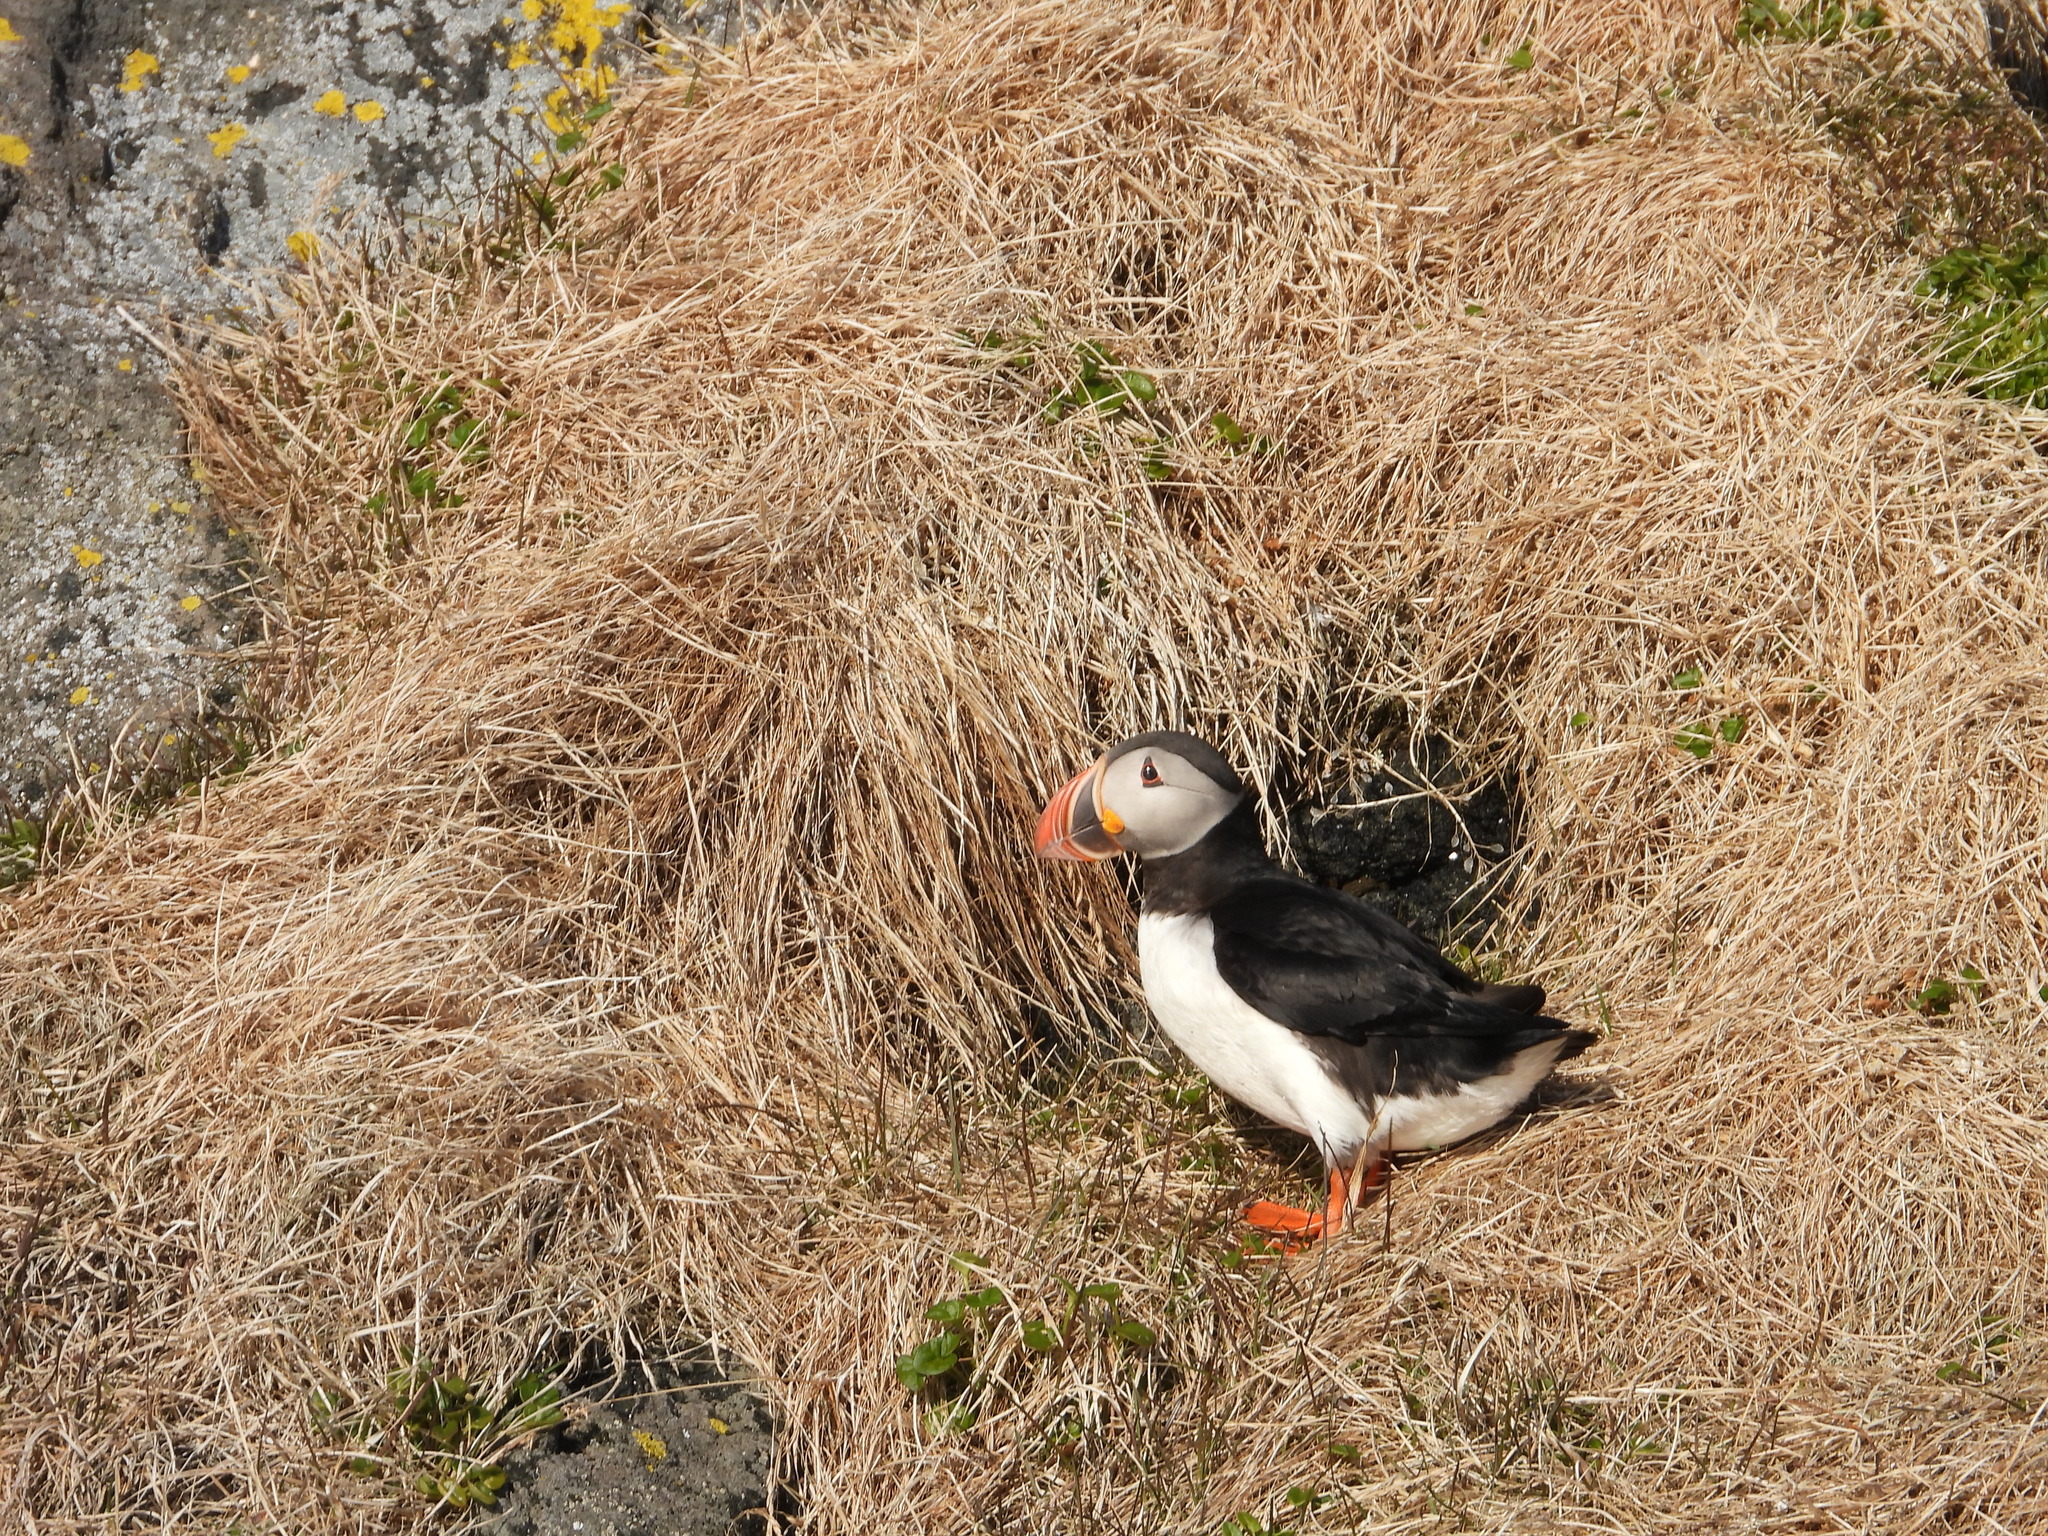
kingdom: Animalia
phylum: Chordata
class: Aves
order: Charadriiformes
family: Alcidae
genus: Fratercula
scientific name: Fratercula arctica
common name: Atlantic puffin
